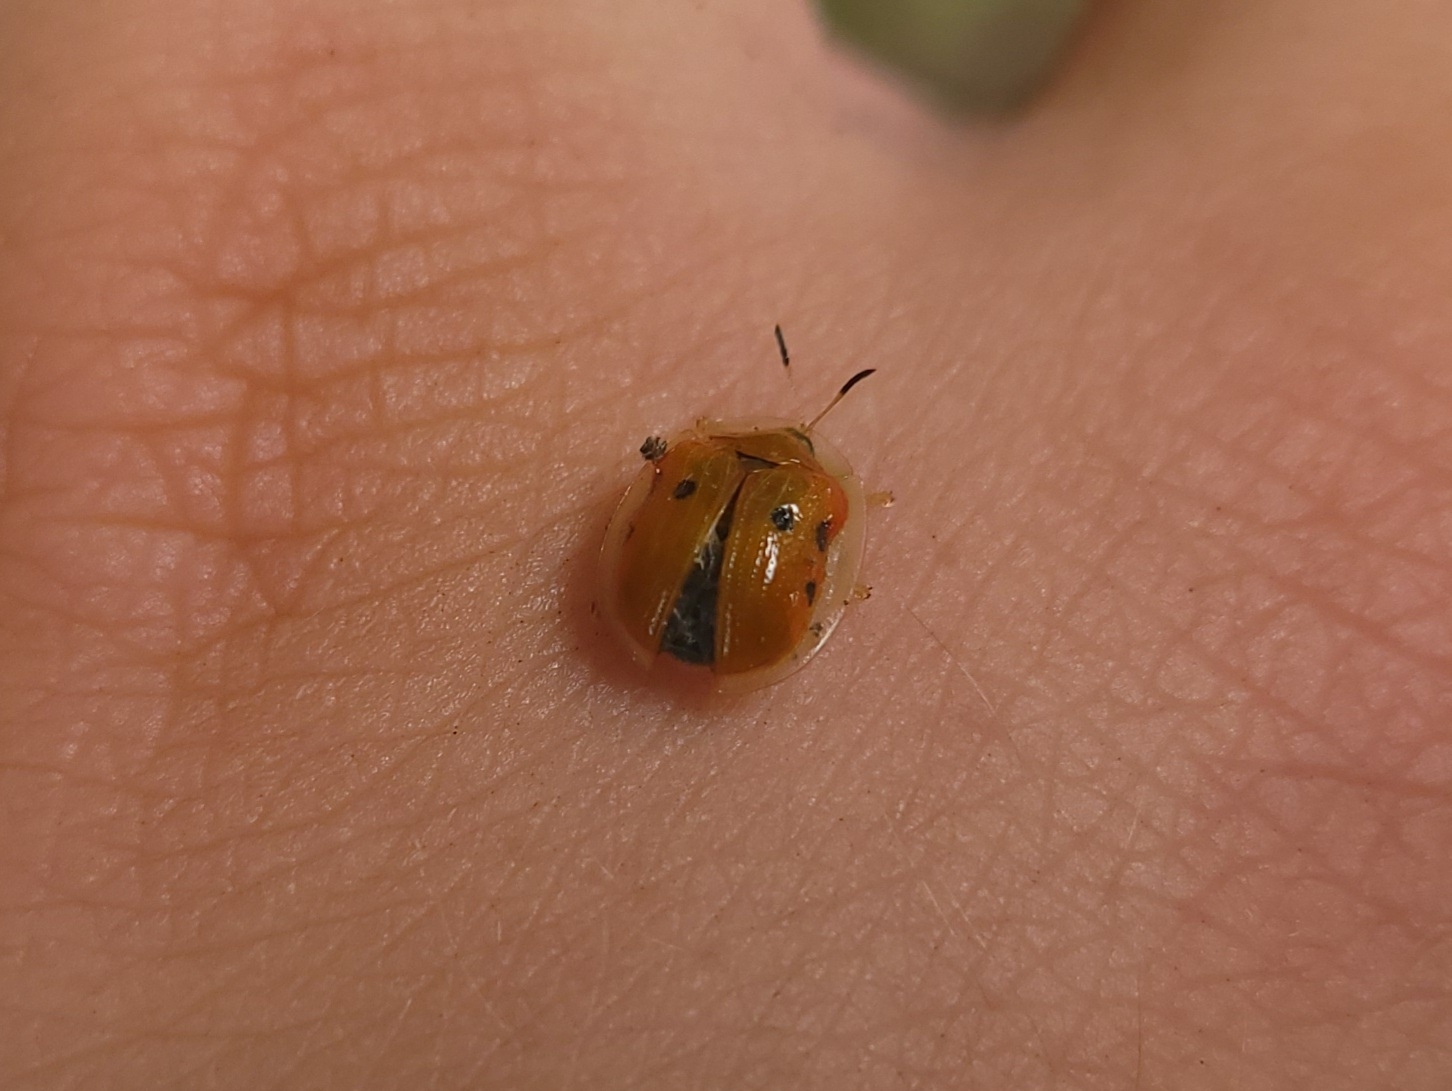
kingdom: Animalia
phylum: Arthropoda
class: Insecta
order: Coleoptera
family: Chrysomelidae
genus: Charidotella
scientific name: Charidotella sexpunctata
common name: Golden tortoise beetle
